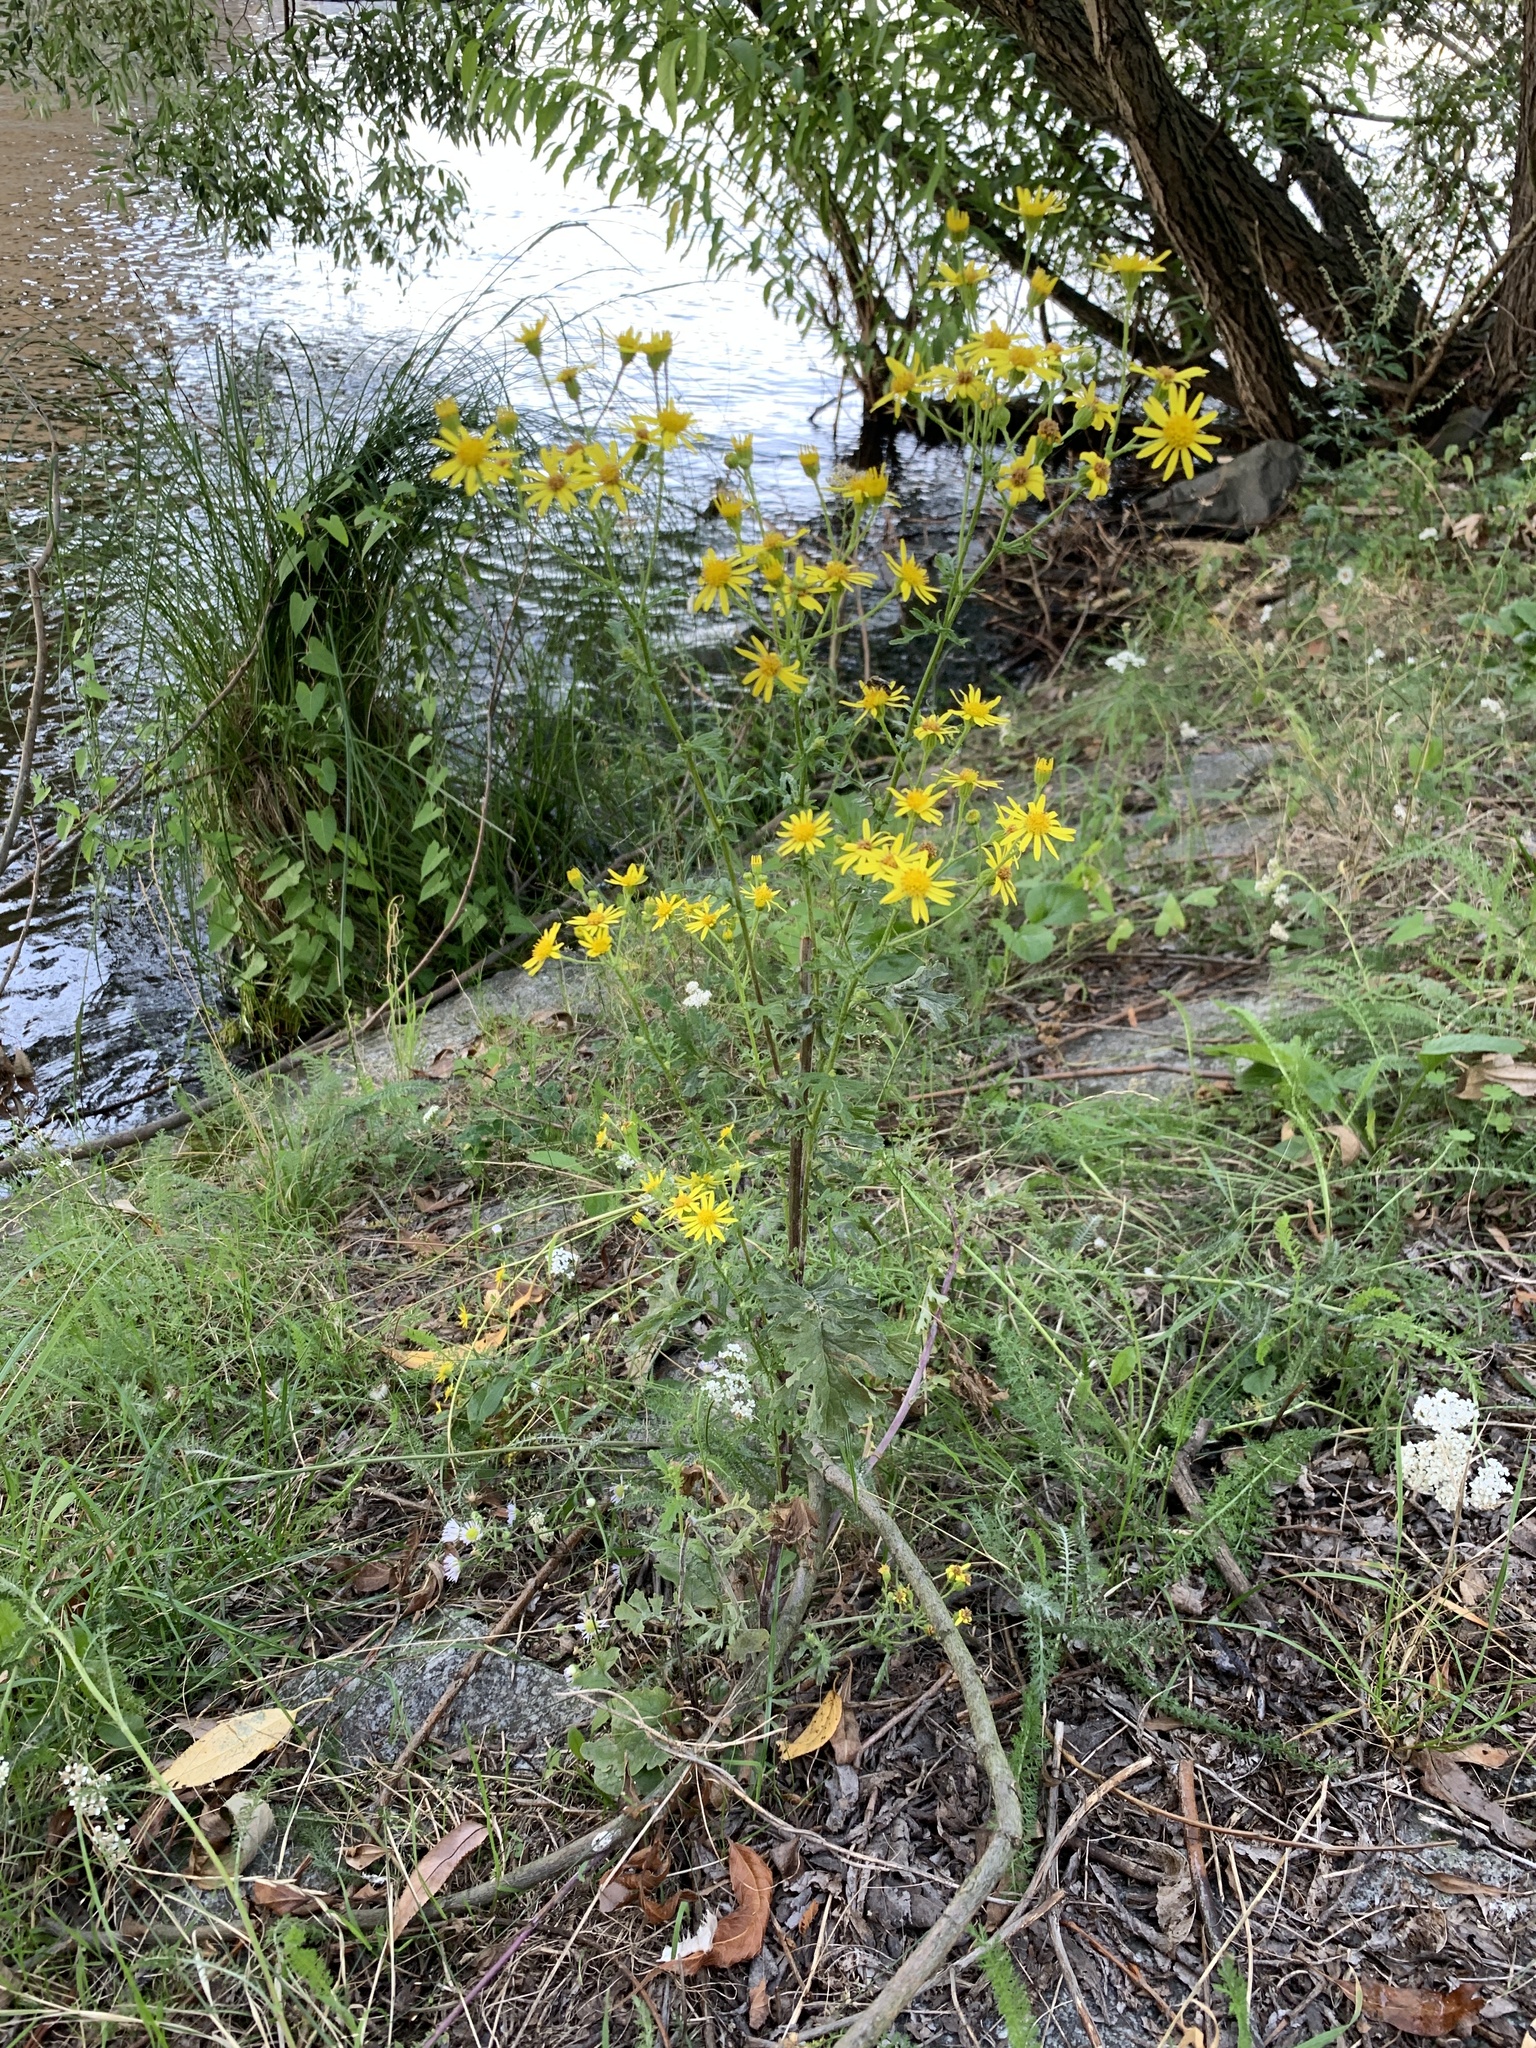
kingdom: Plantae
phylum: Tracheophyta
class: Magnoliopsida
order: Asterales
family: Asteraceae
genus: Jacobaea
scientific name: Jacobaea vulgaris
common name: Stinking willie
